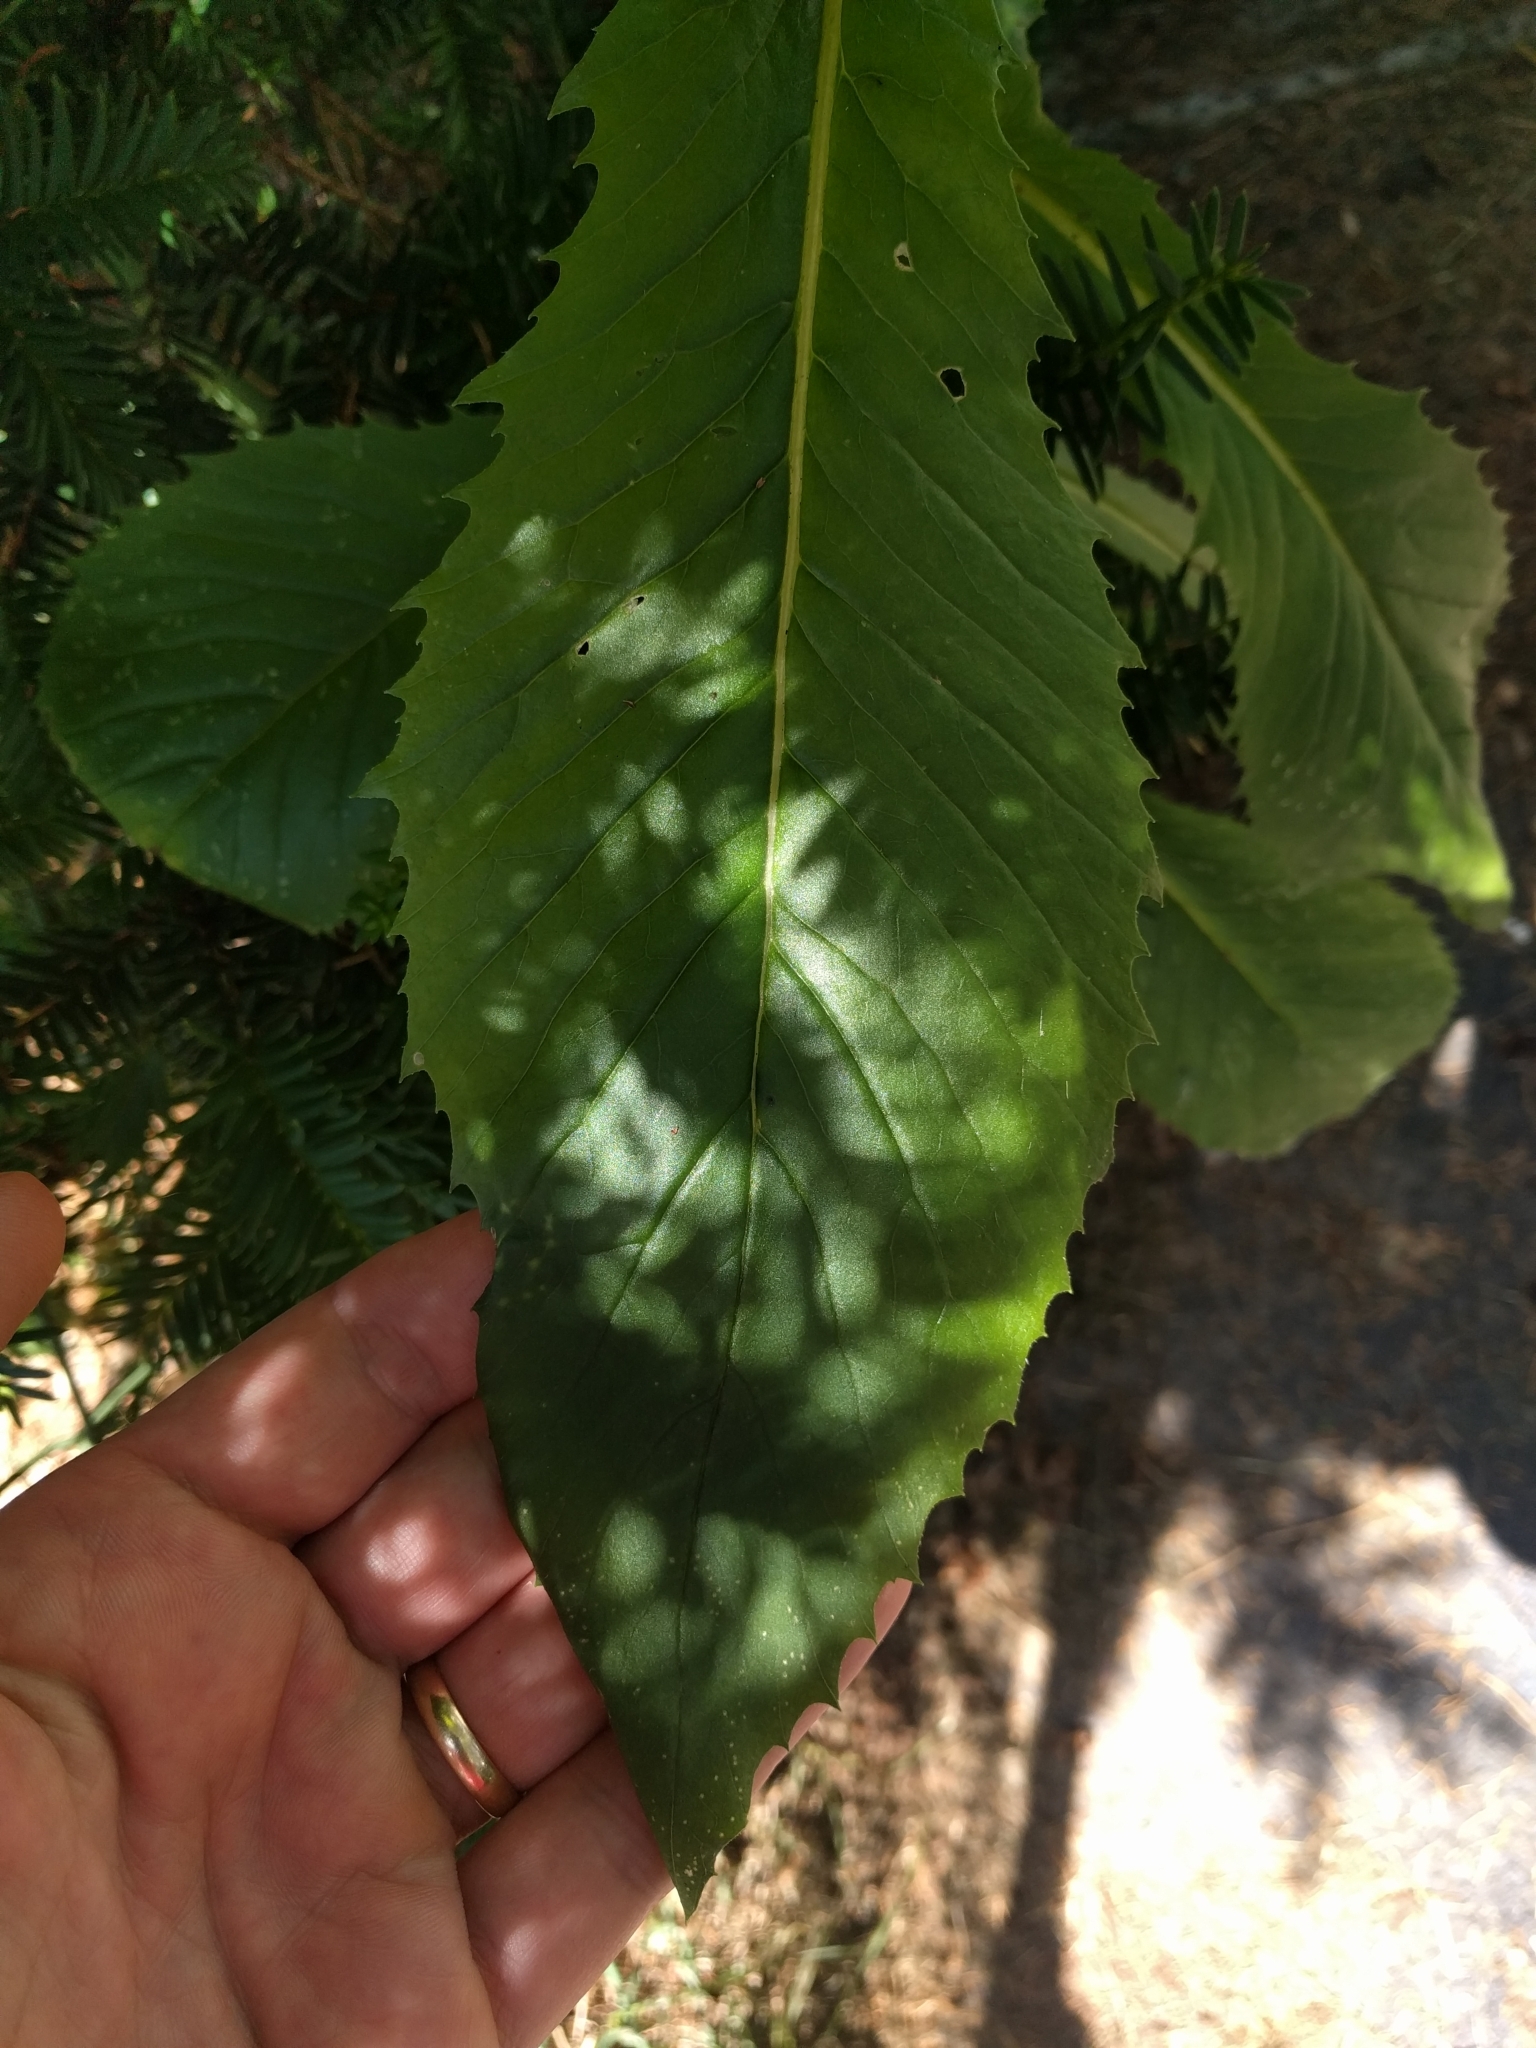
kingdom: Plantae
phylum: Tracheophyta
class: Magnoliopsida
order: Asterales
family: Asteraceae
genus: Erechtites
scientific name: Erechtites hieraciifolius
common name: American burnweed
